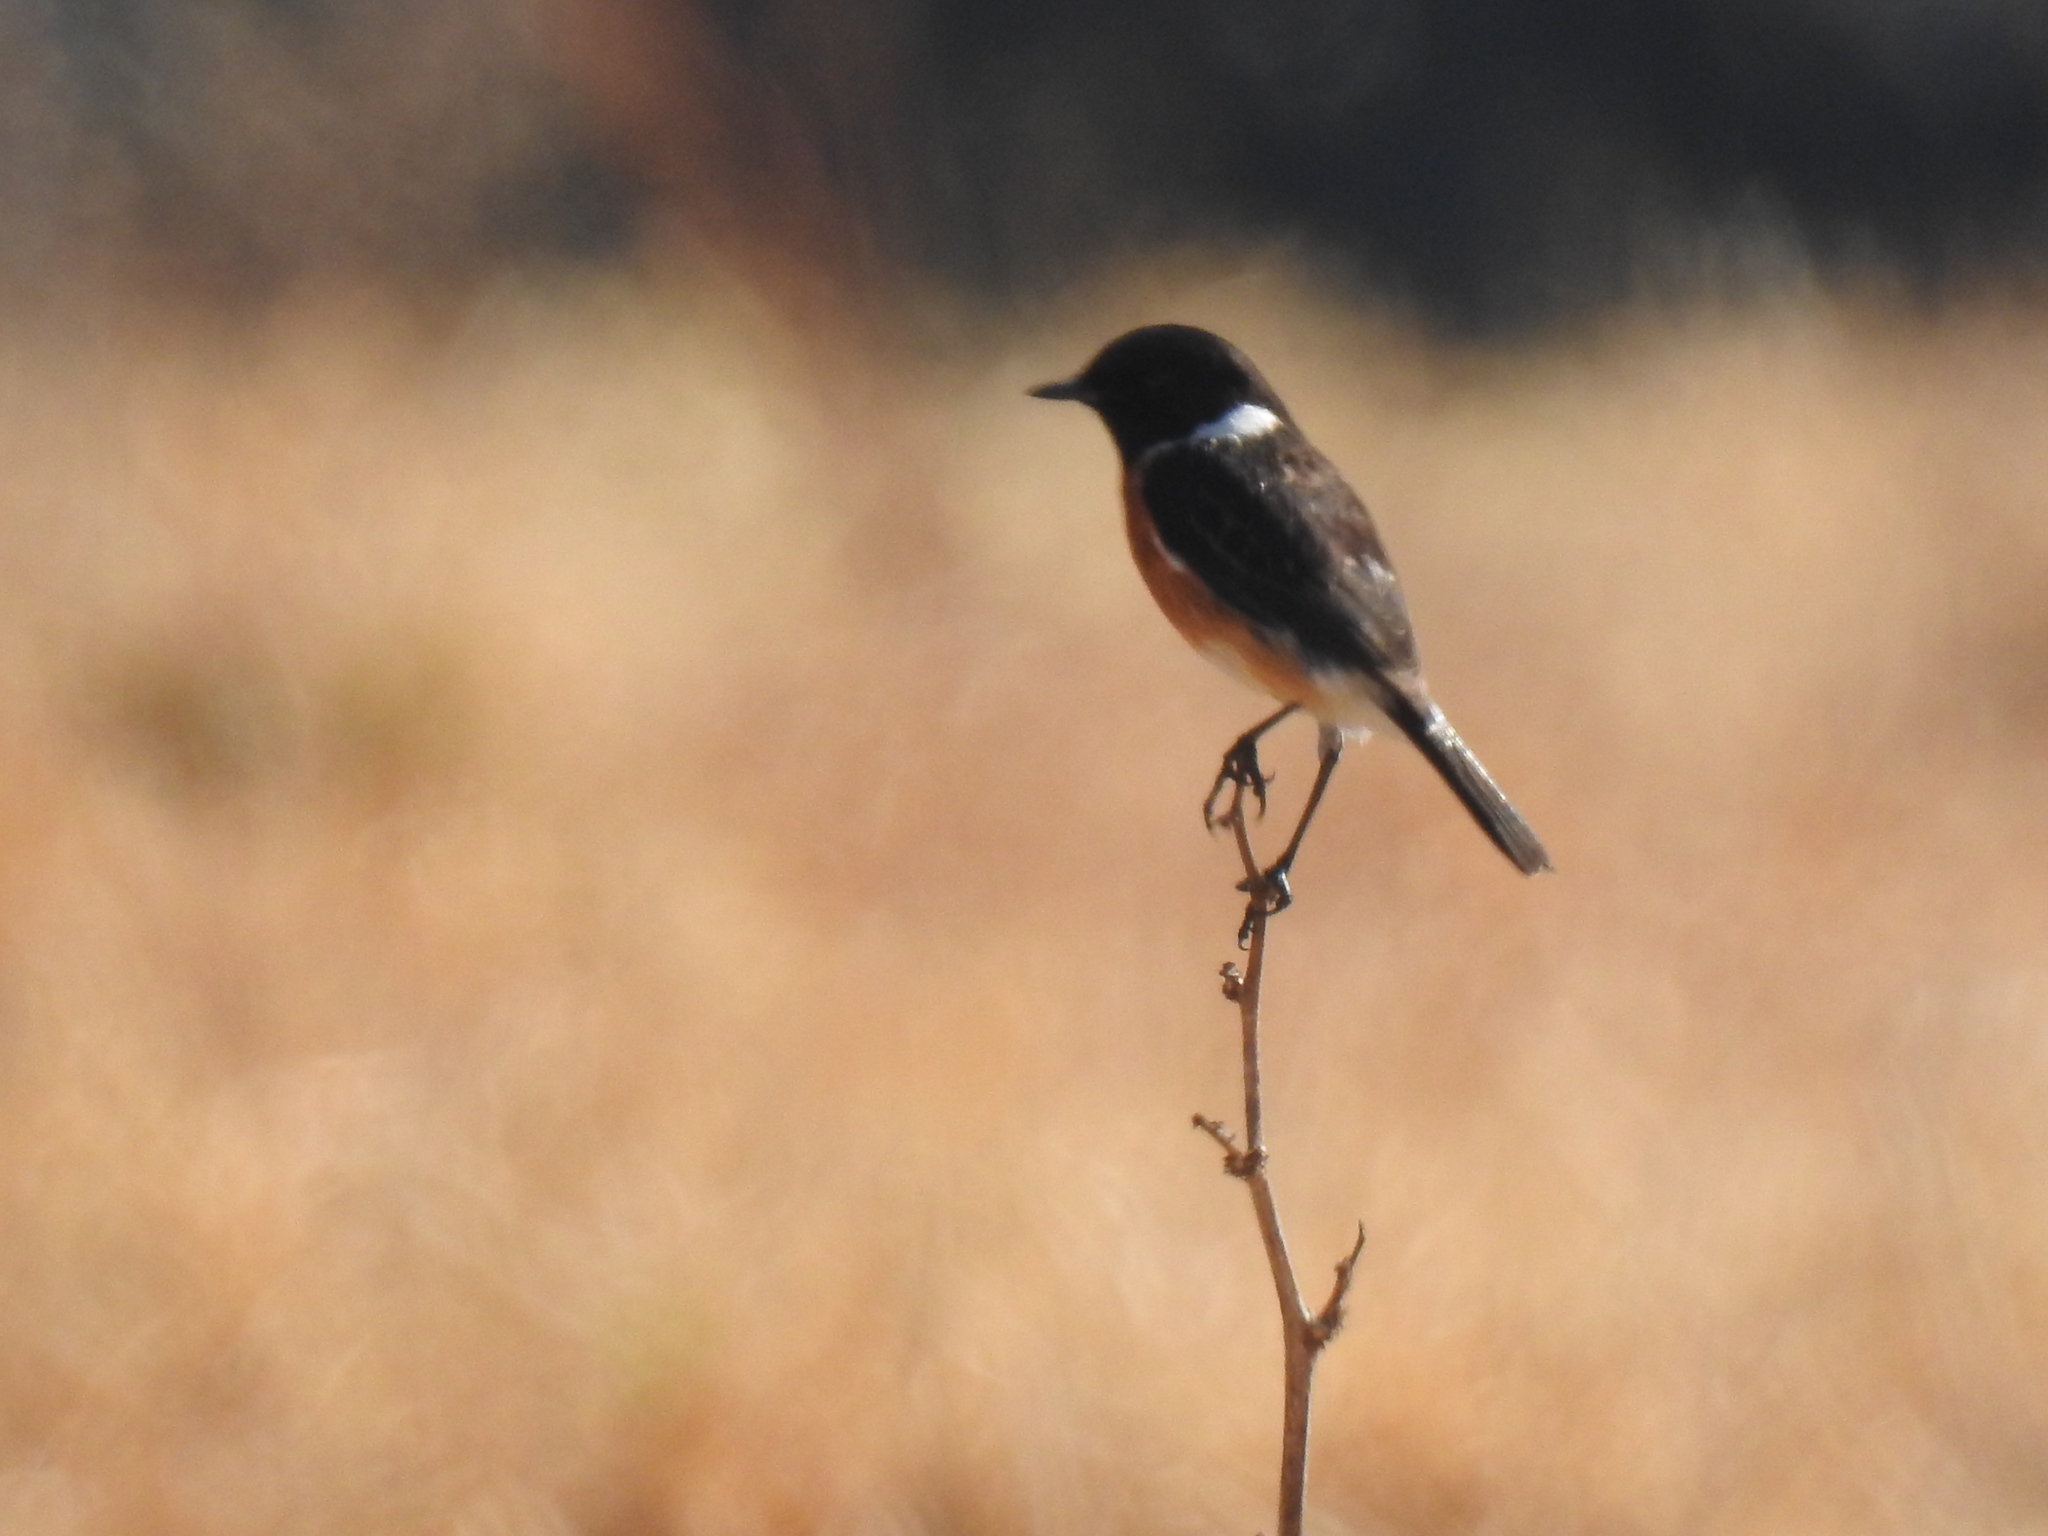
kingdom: Animalia
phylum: Chordata
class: Aves
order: Passeriformes
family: Muscicapidae
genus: Saxicola
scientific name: Saxicola torquatus
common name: African stonechat
